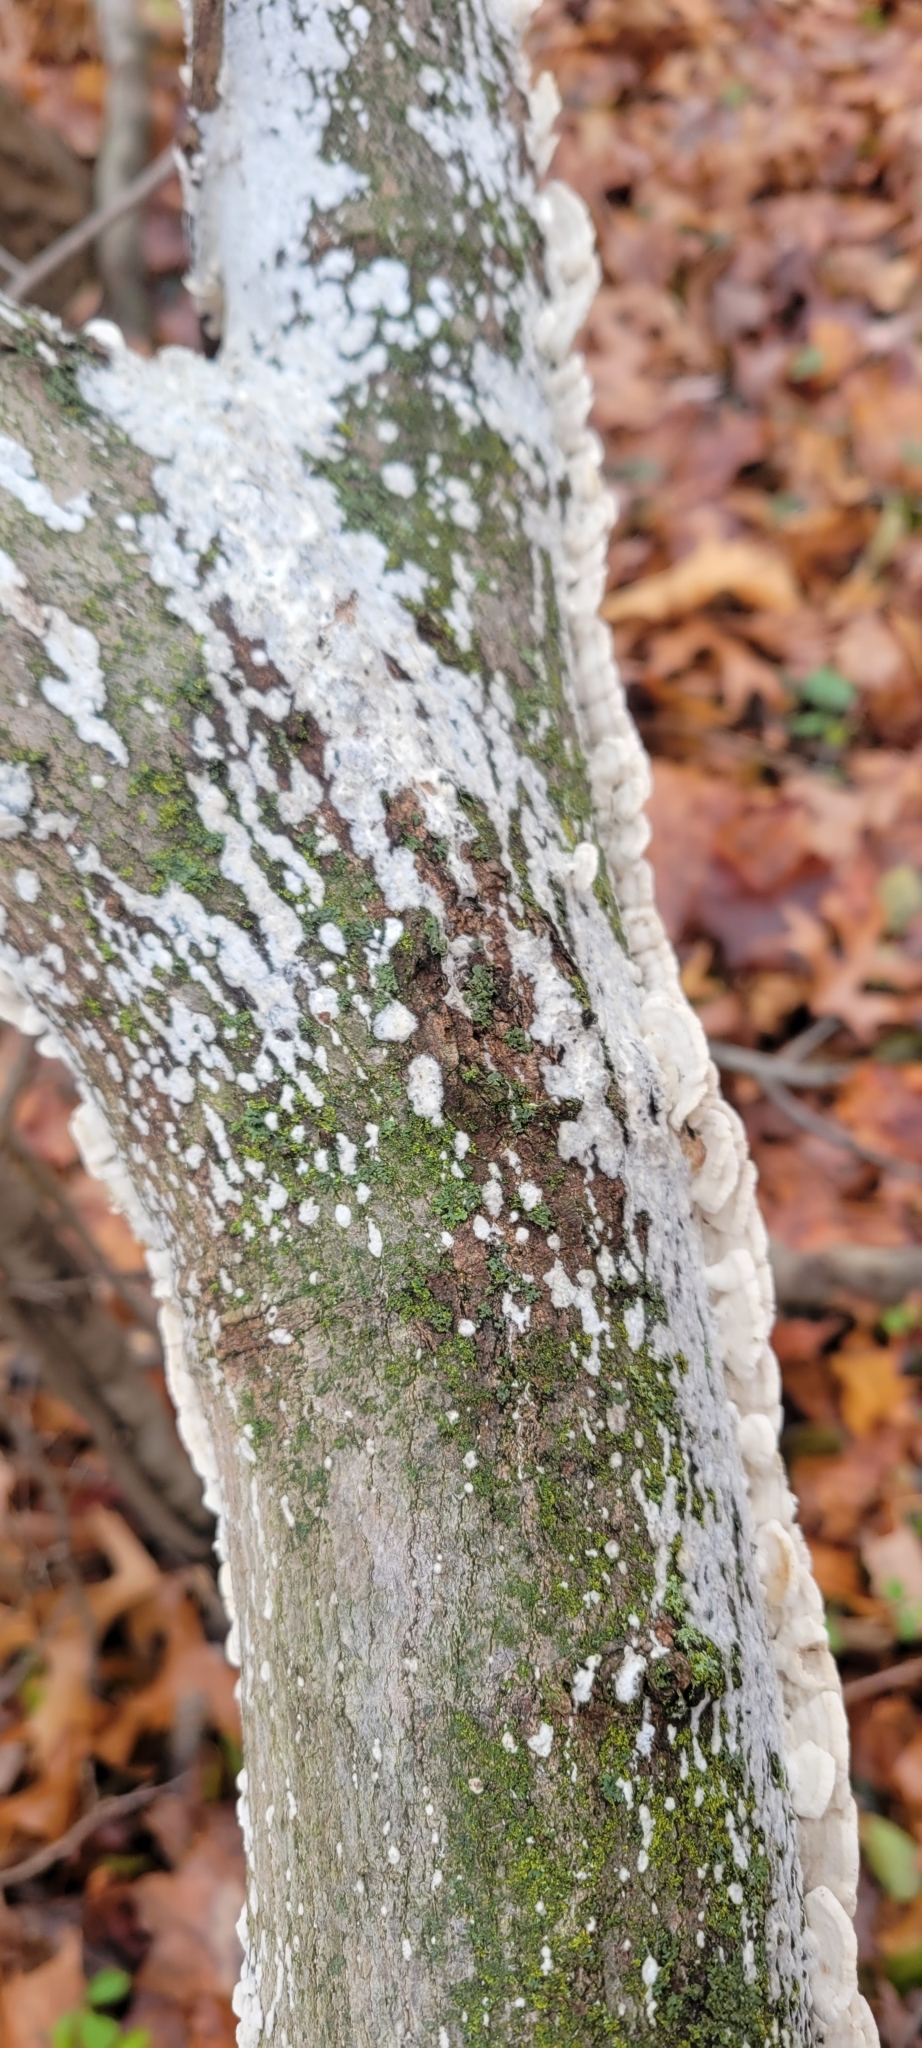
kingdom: Fungi
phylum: Basidiomycota
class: Agaricomycetes
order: Polyporales
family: Irpicaceae
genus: Irpex
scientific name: Irpex lacteus
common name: Milk-white toothed polypore
